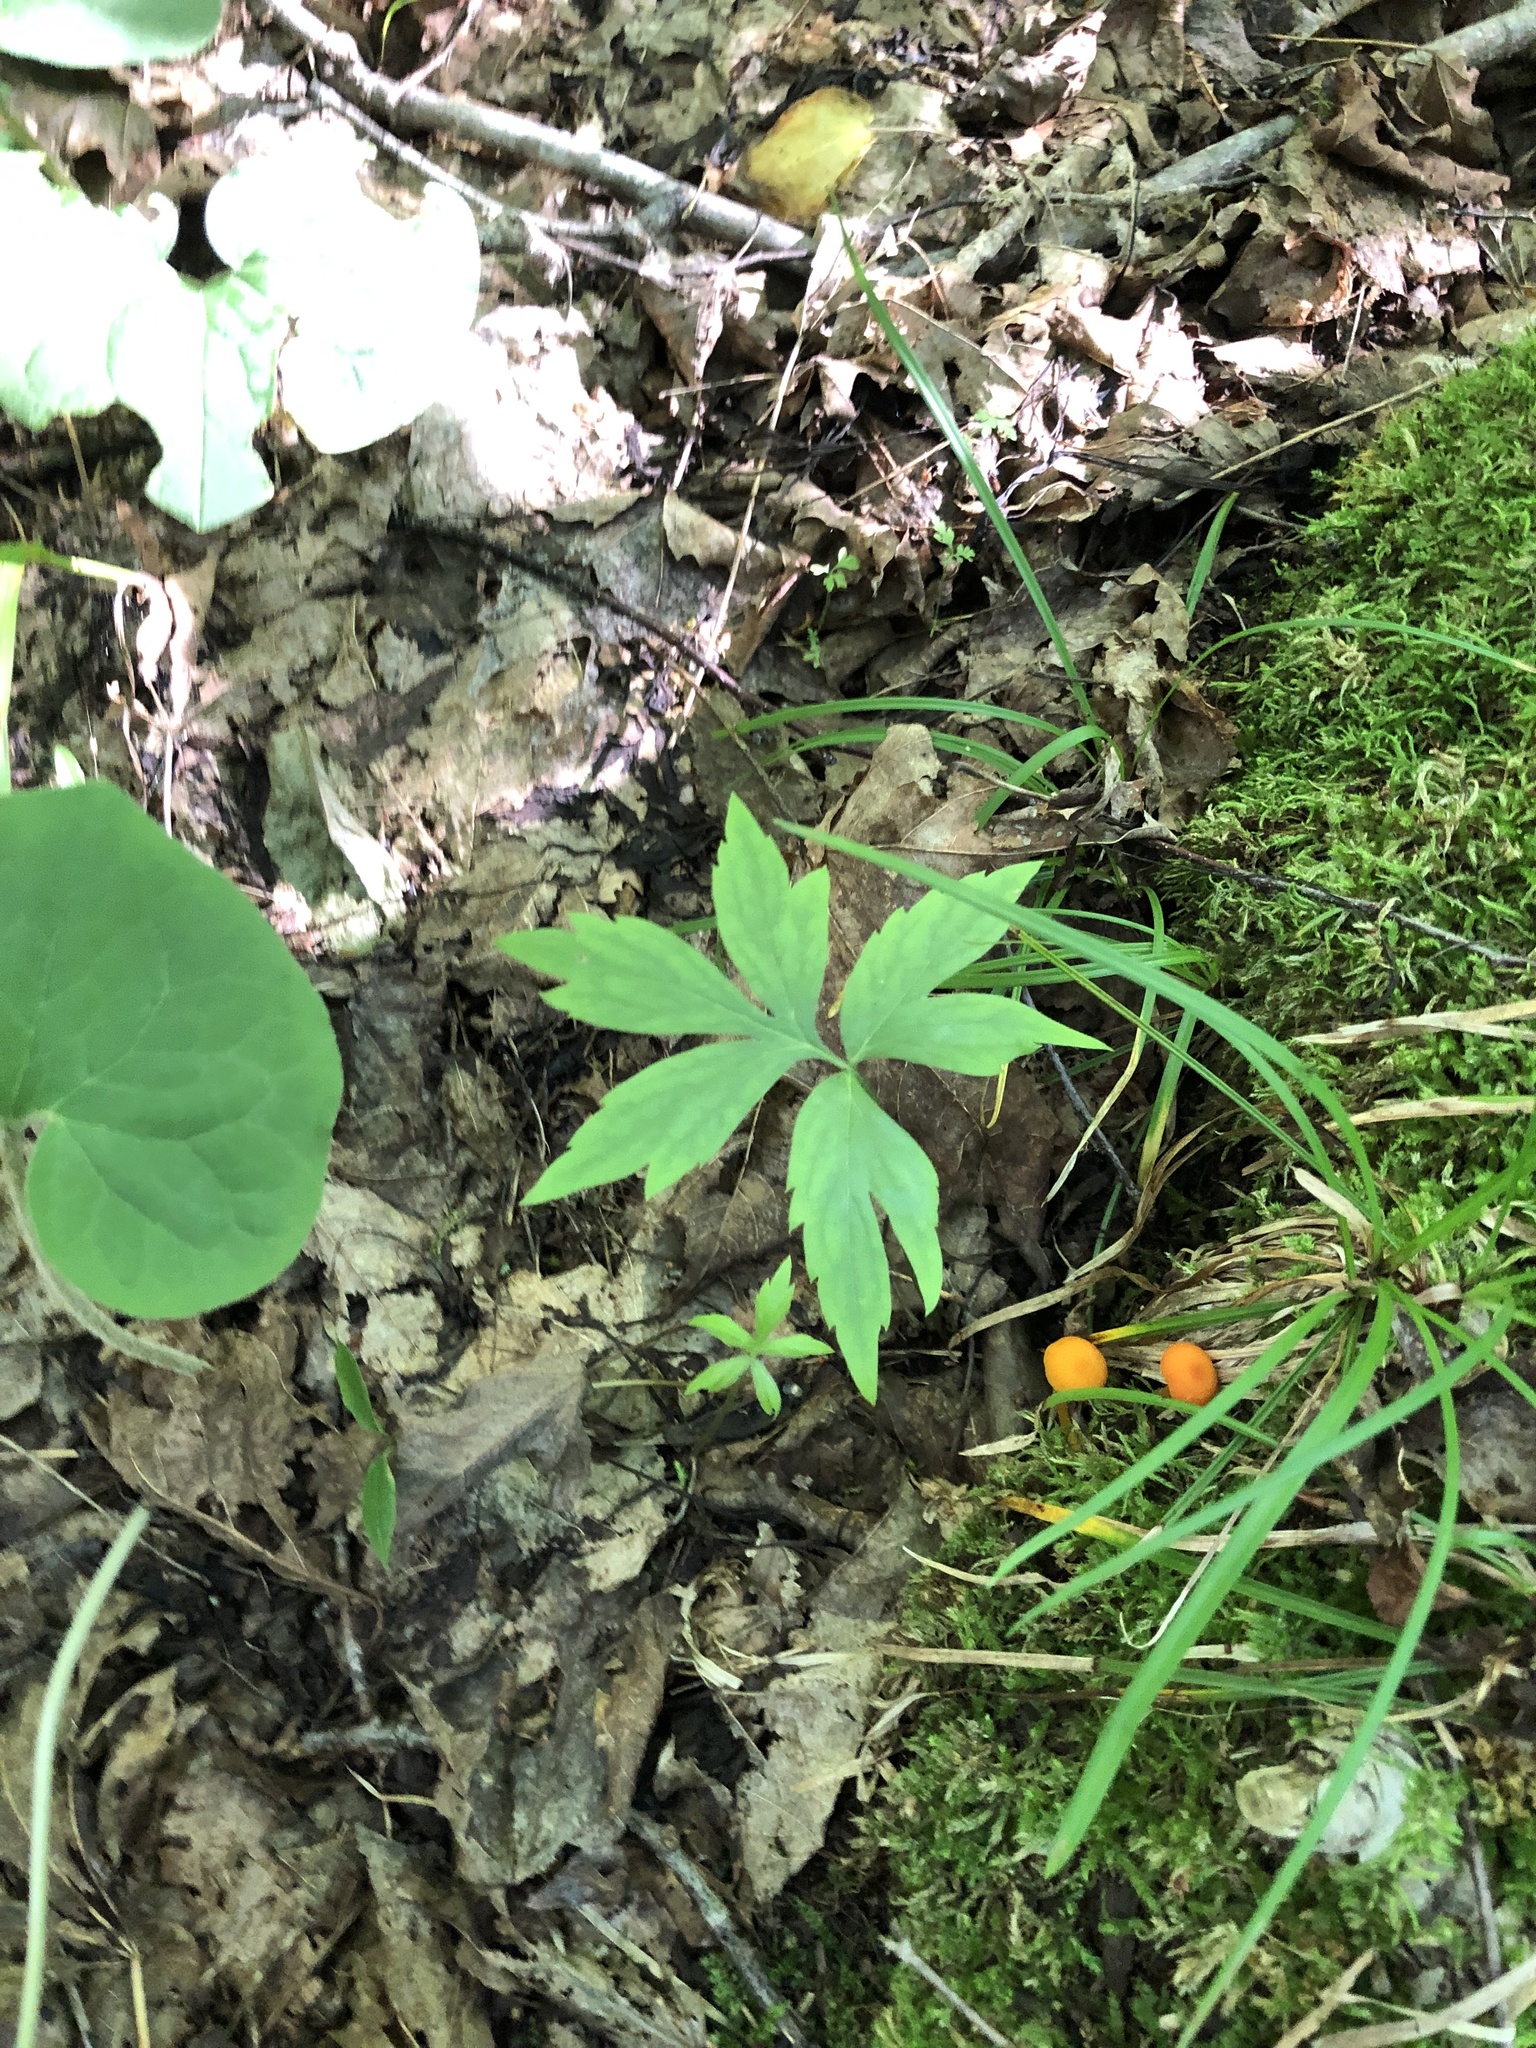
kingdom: Plantae
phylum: Tracheophyta
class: Magnoliopsida
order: Boraginales
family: Hydrophyllaceae
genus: Hydrophyllum
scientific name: Hydrophyllum virginianum
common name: Virginia waterleaf
